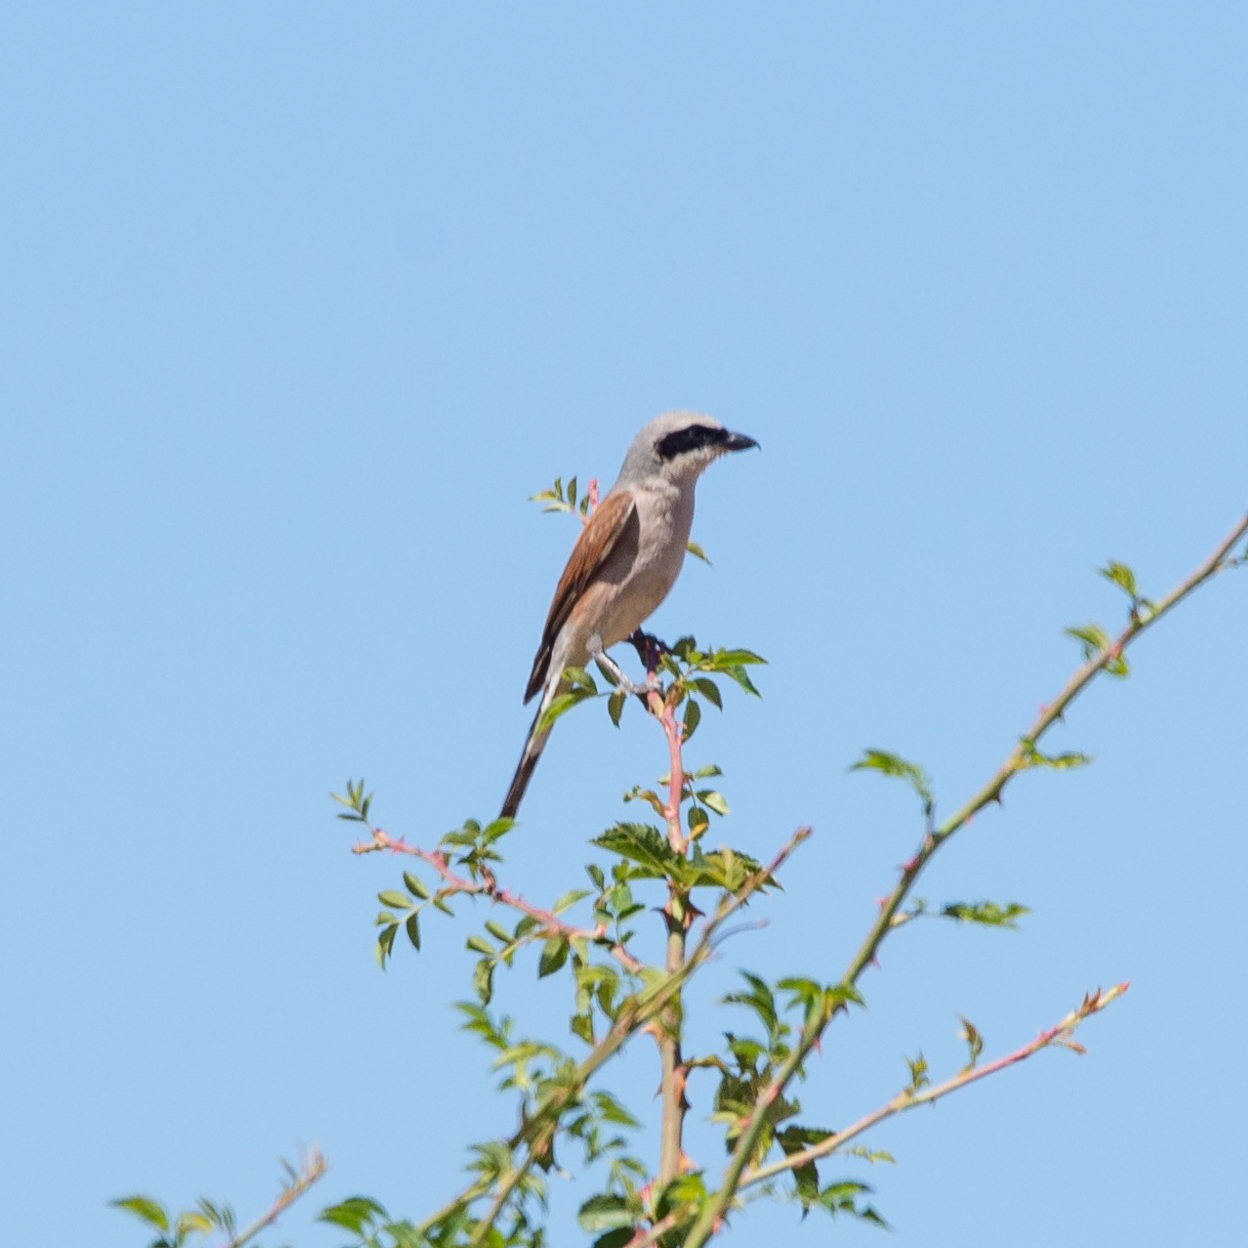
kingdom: Animalia
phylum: Chordata
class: Aves
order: Passeriformes
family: Laniidae
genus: Lanius
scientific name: Lanius collurio
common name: Red-backed shrike
